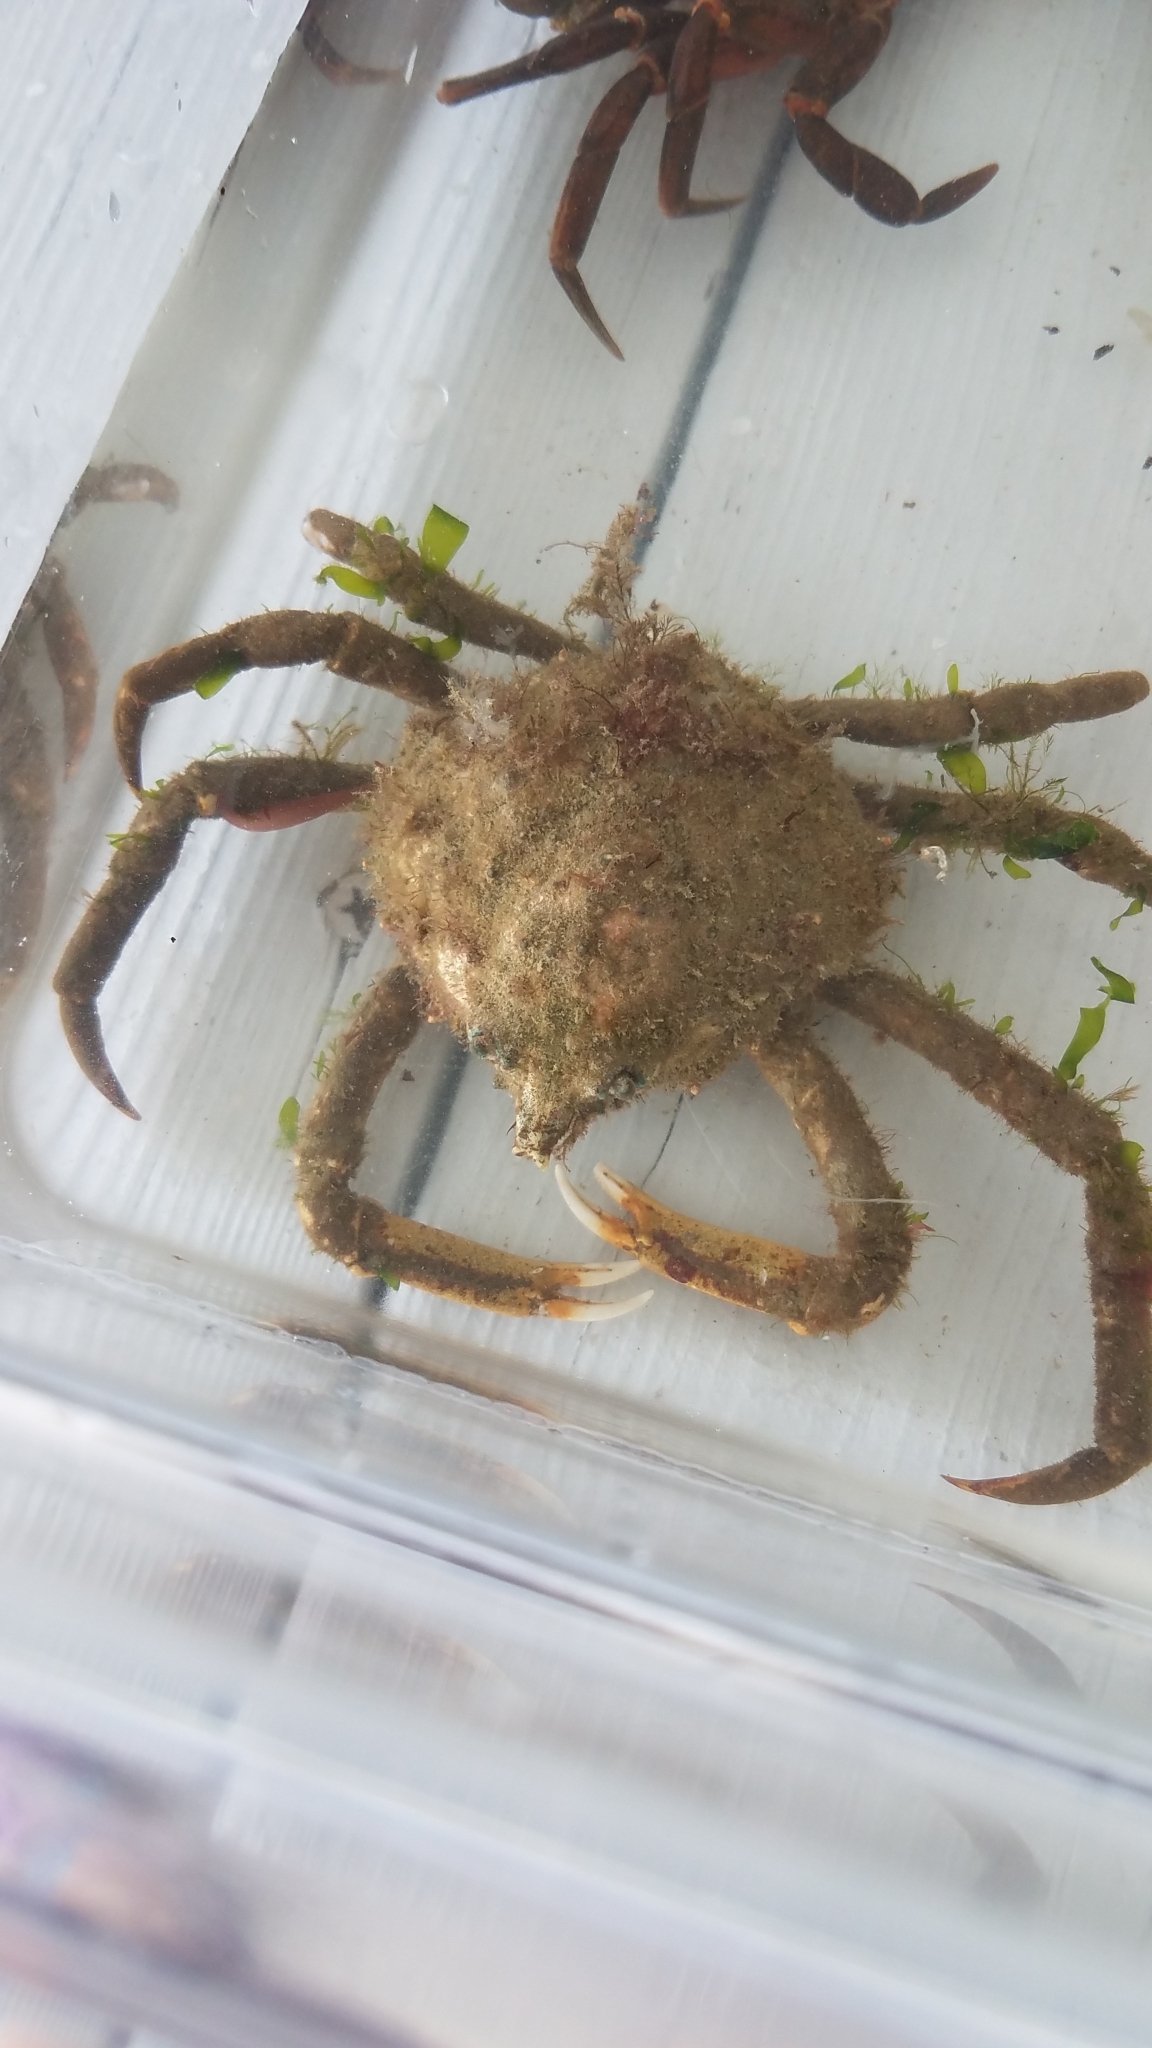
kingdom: Animalia
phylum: Arthropoda
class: Malacostraca
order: Decapoda
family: Epialtidae
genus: Libinia
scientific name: Libinia emarginata
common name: Common spider crab
